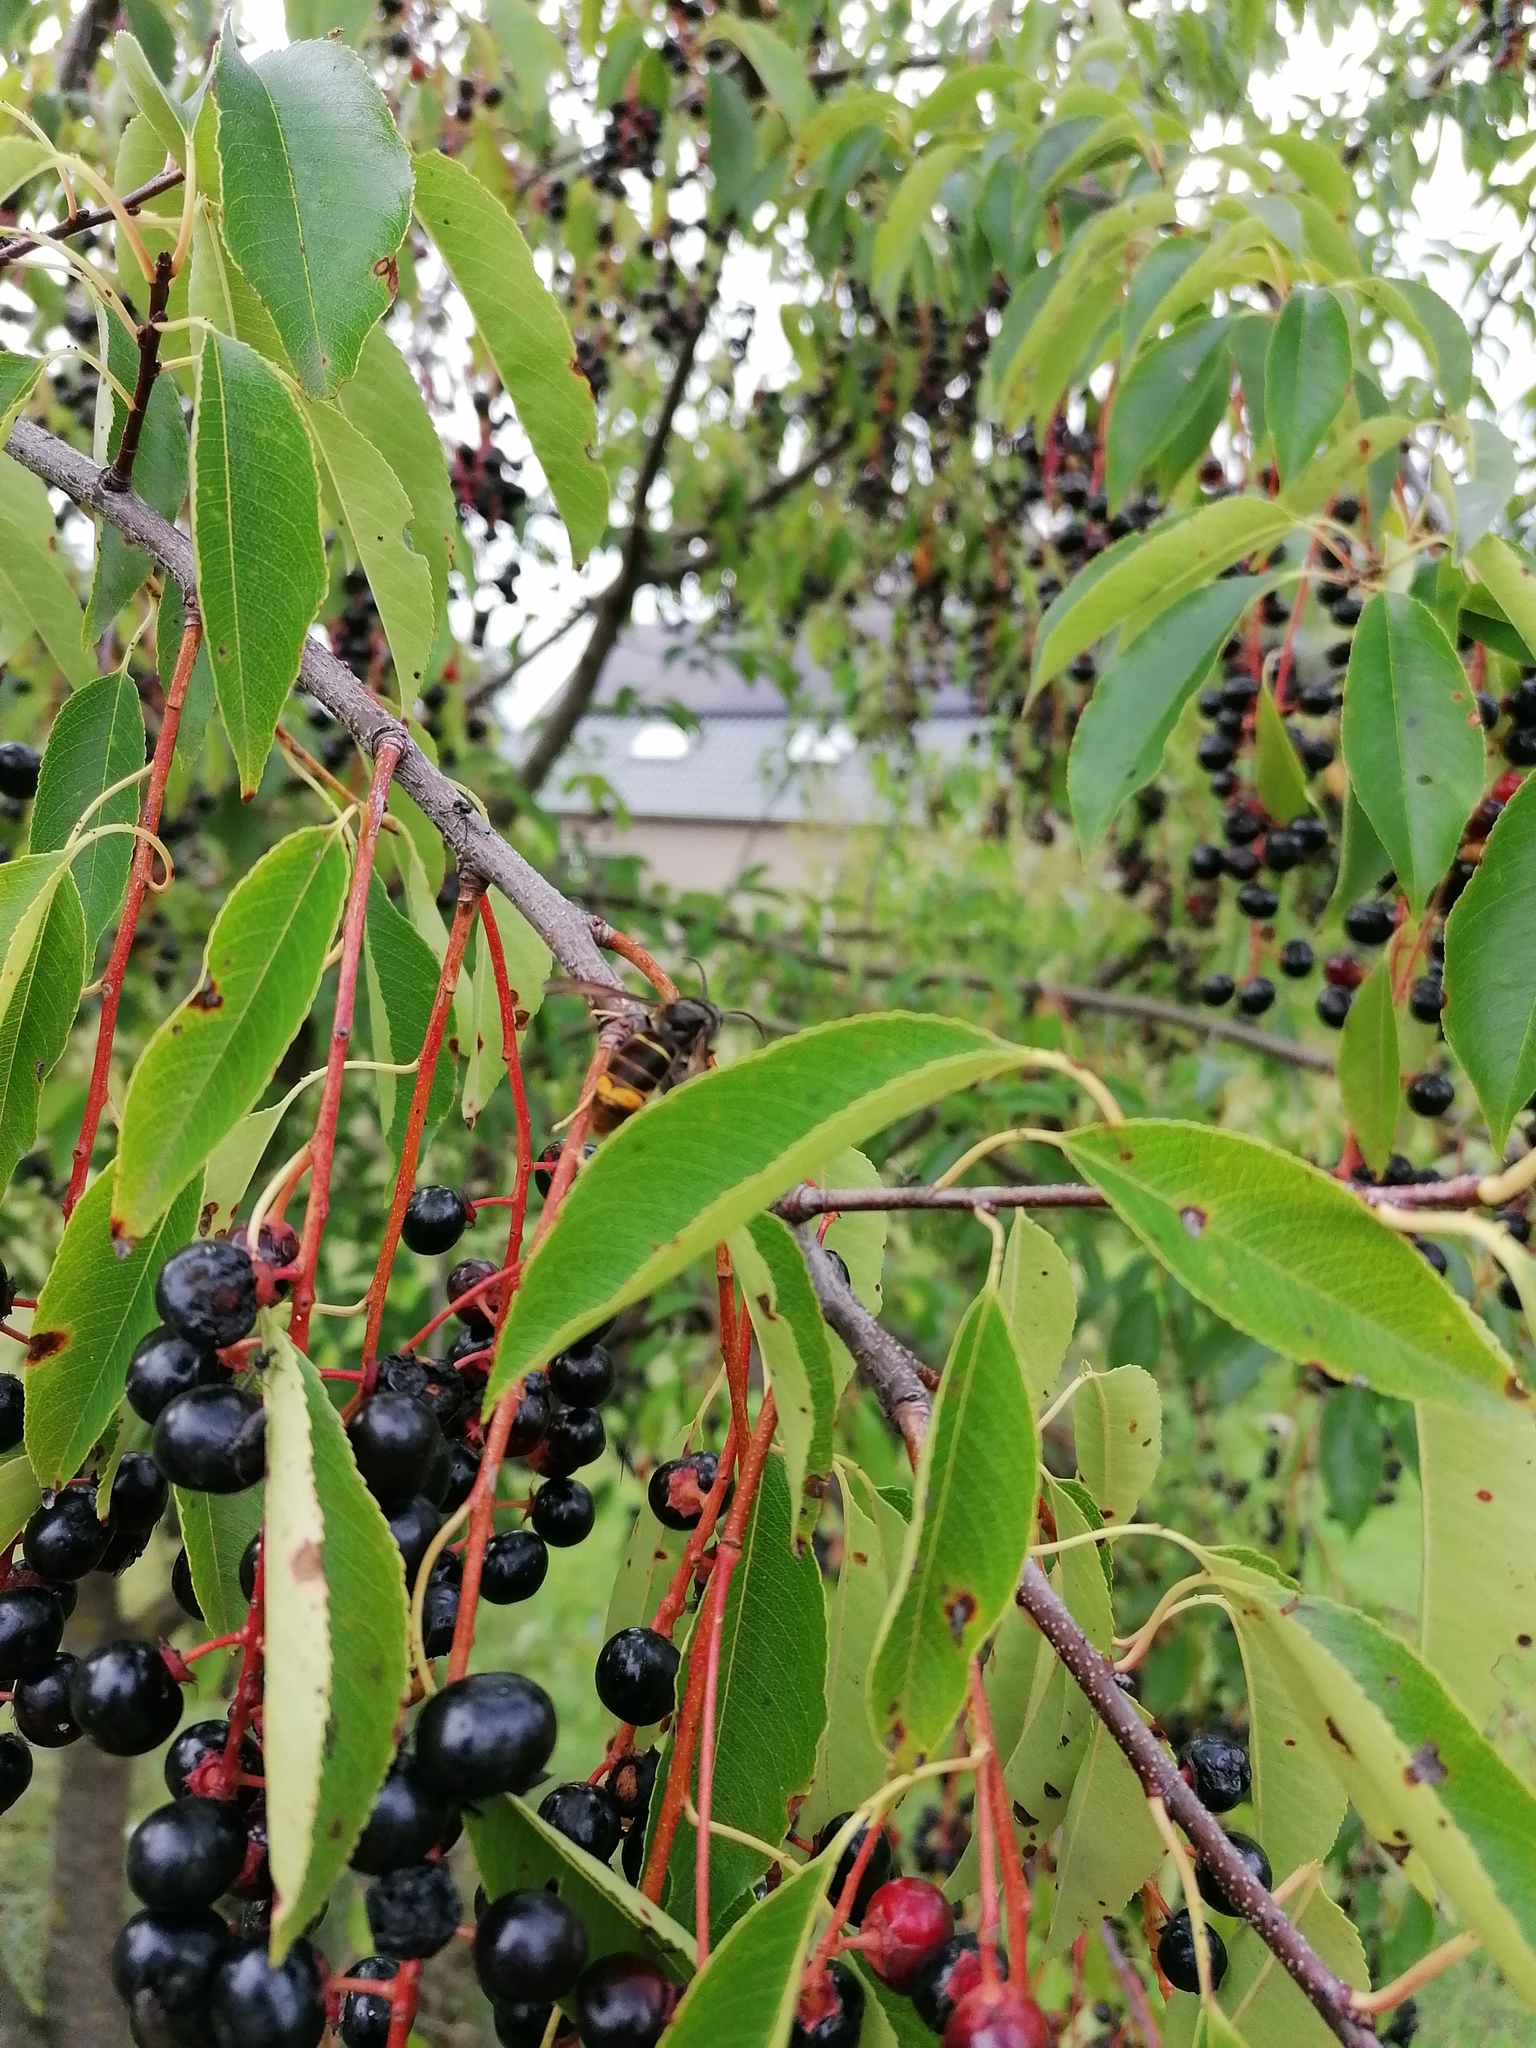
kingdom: Animalia
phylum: Arthropoda
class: Insecta
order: Hymenoptera
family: Vespidae
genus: Vespa
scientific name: Vespa velutina
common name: Asian hornet
